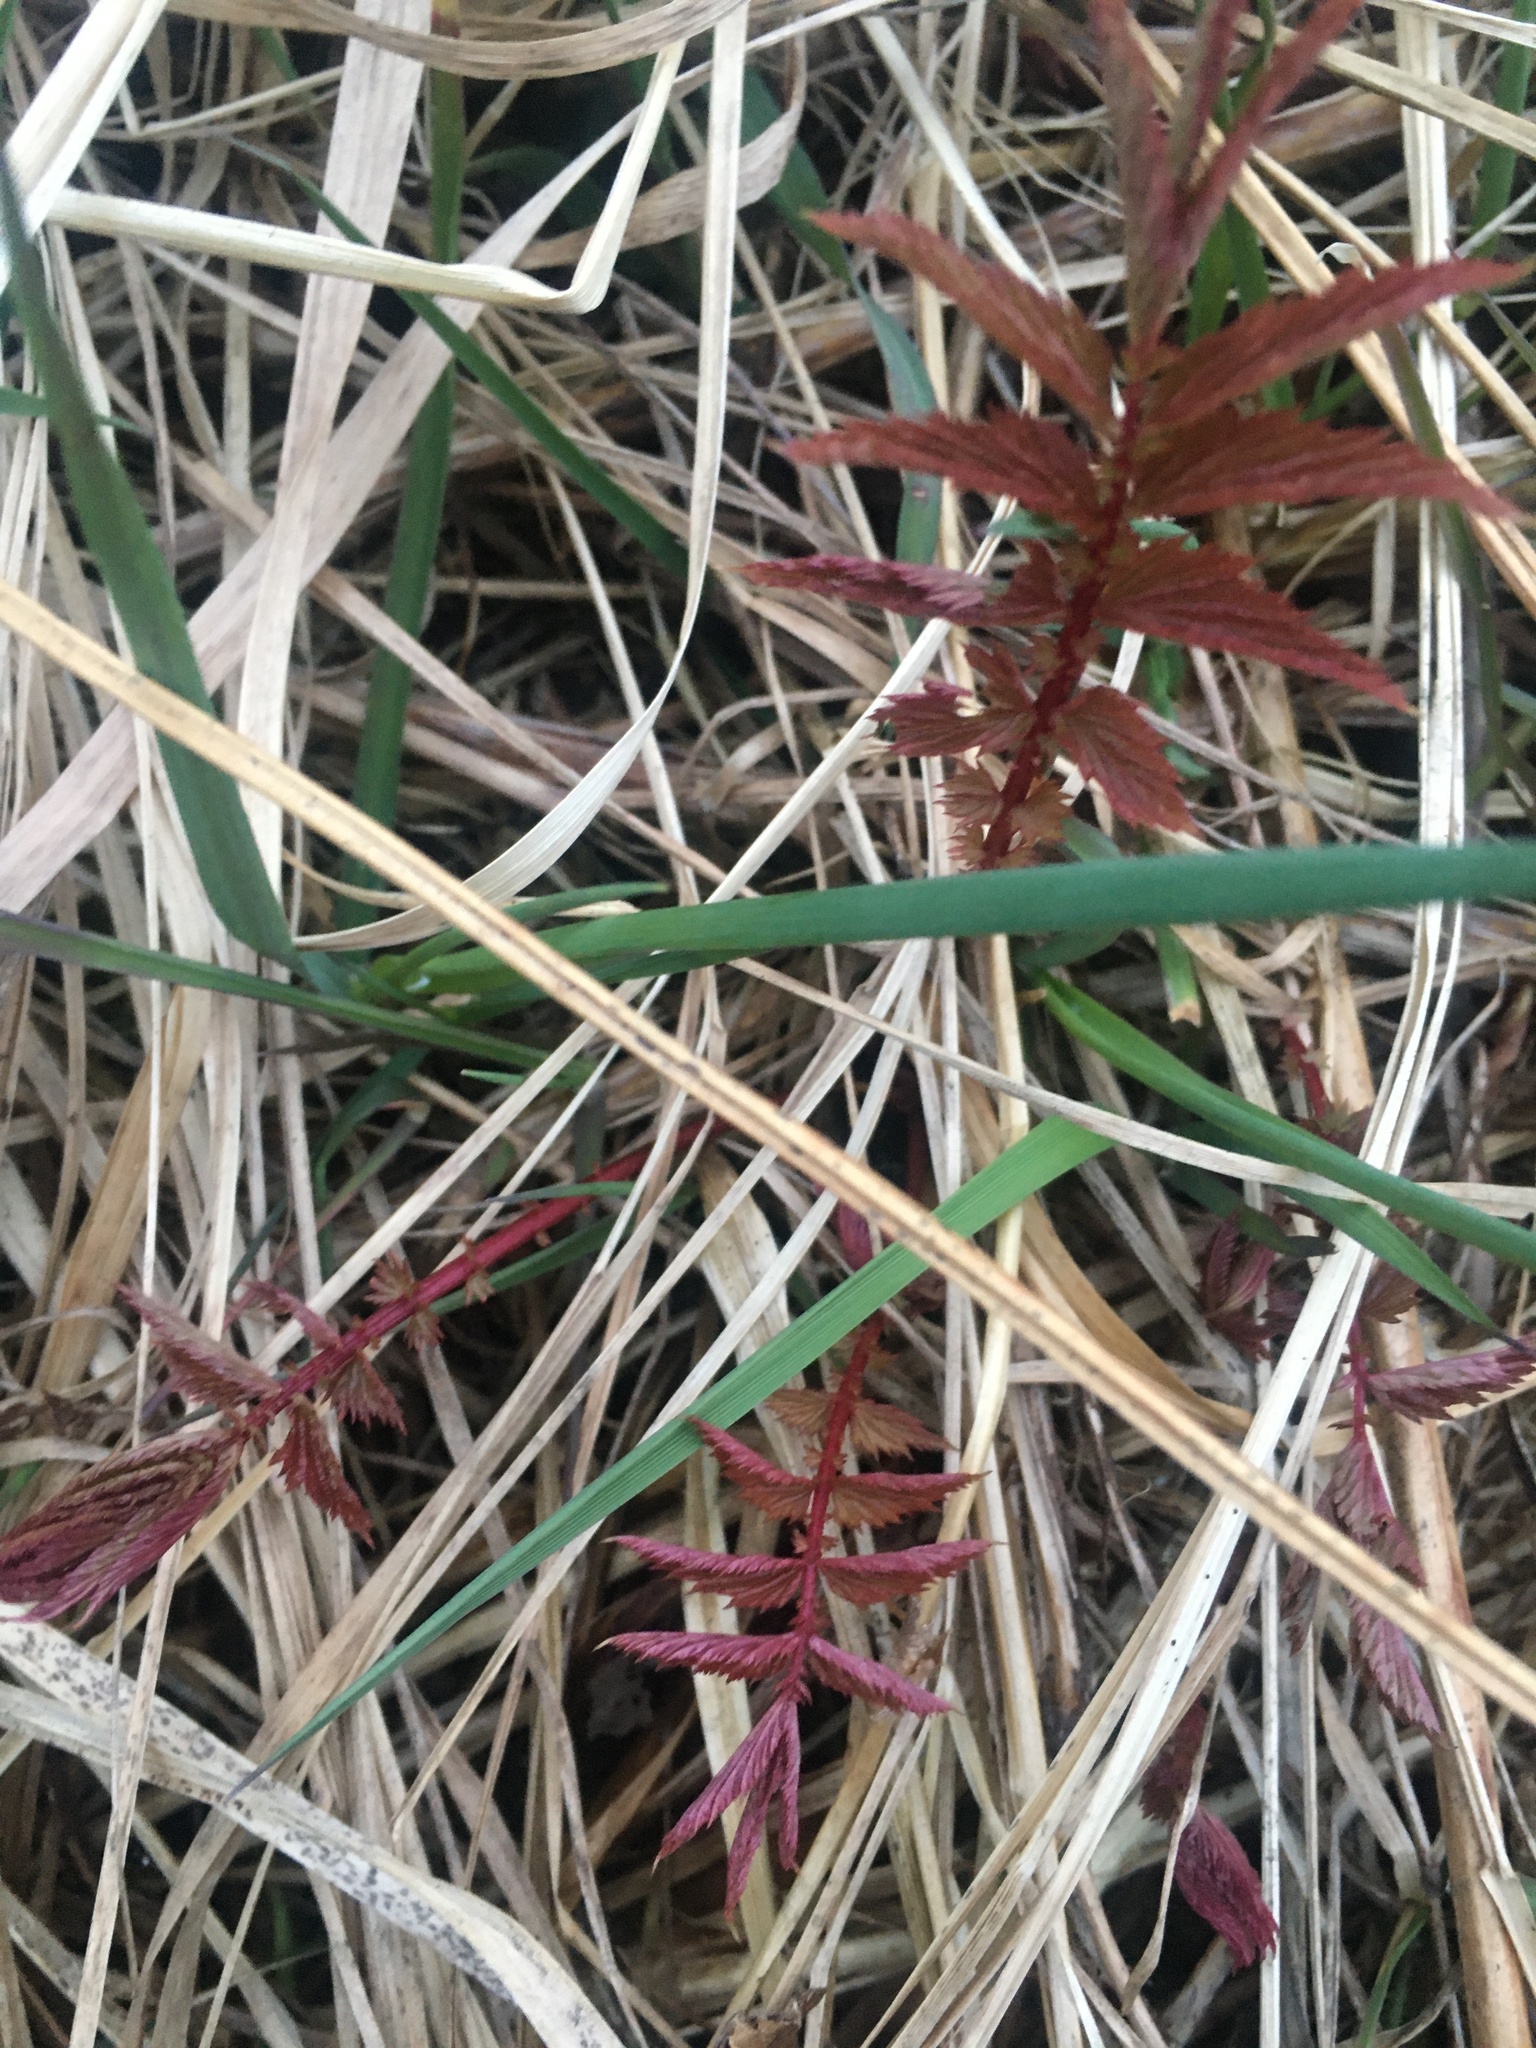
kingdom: Plantae
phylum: Tracheophyta
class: Magnoliopsida
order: Rosales
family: Rosaceae
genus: Filipendula
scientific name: Filipendula ulmaria
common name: Meadowsweet
